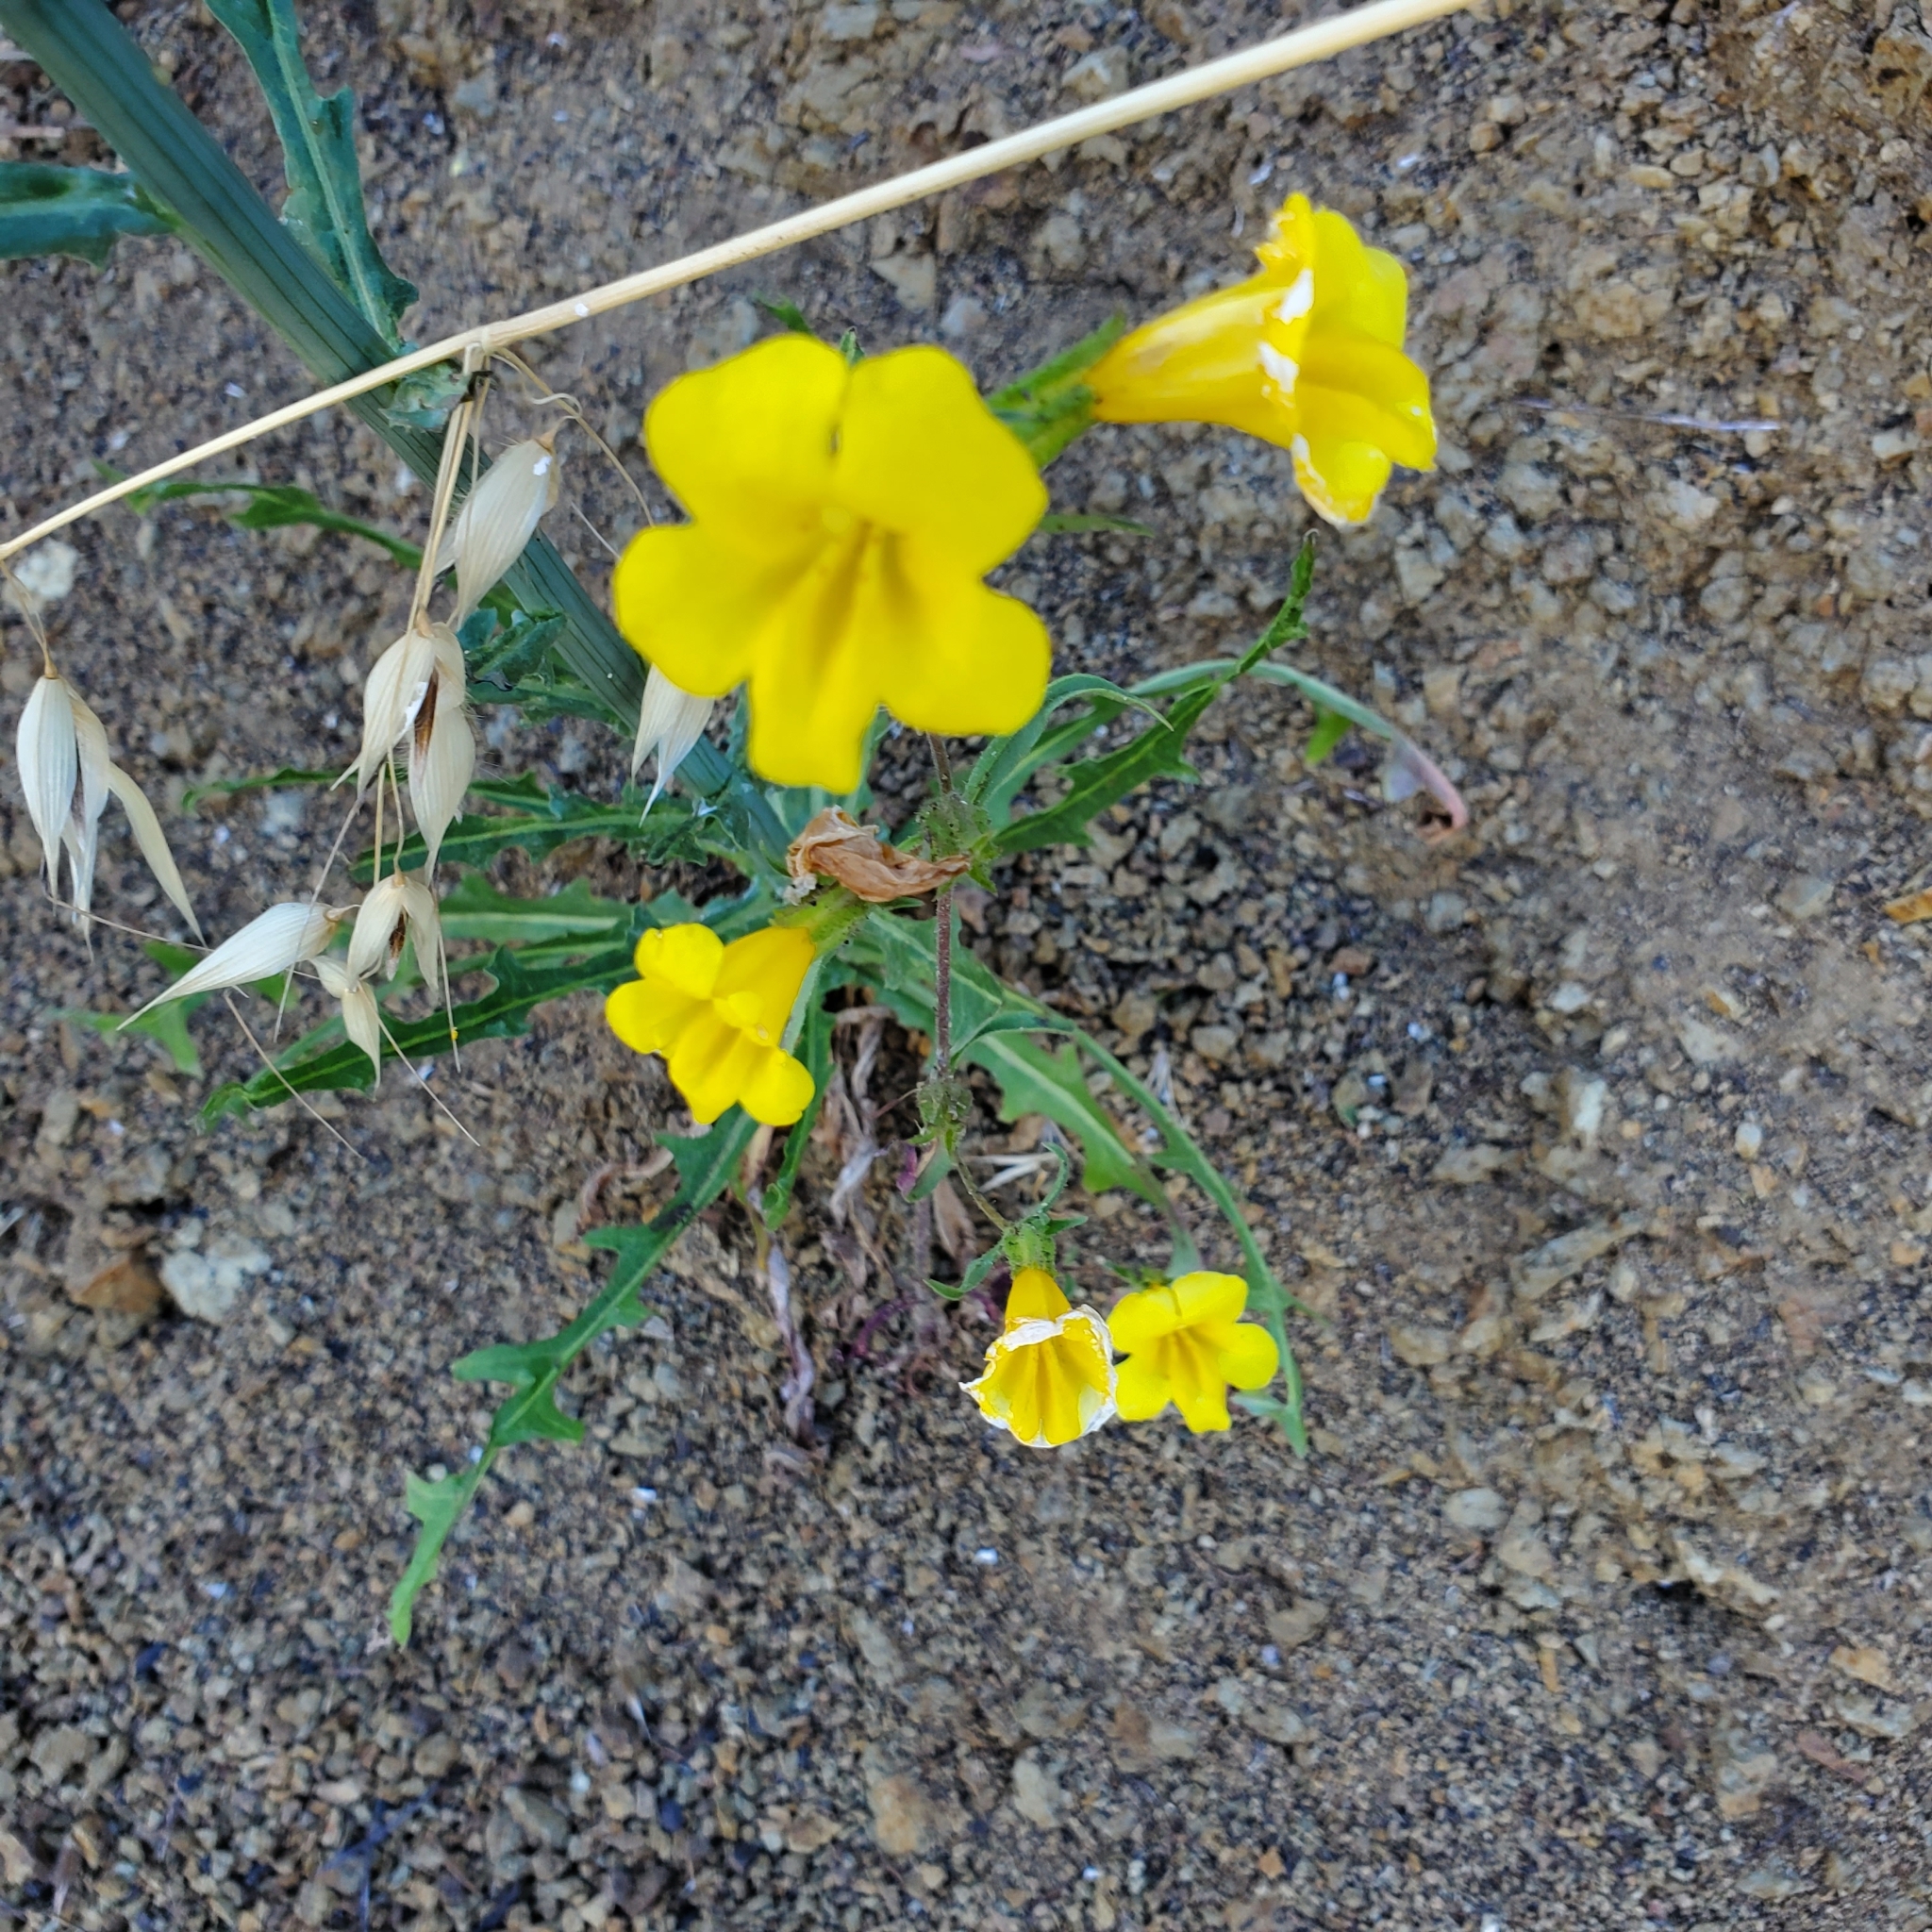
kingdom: Plantae
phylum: Tracheophyta
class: Magnoliopsida
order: Lamiales
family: Phrymaceae
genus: Diplacus
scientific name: Diplacus brevipes
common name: Wide-throat yellow monkey-flower
